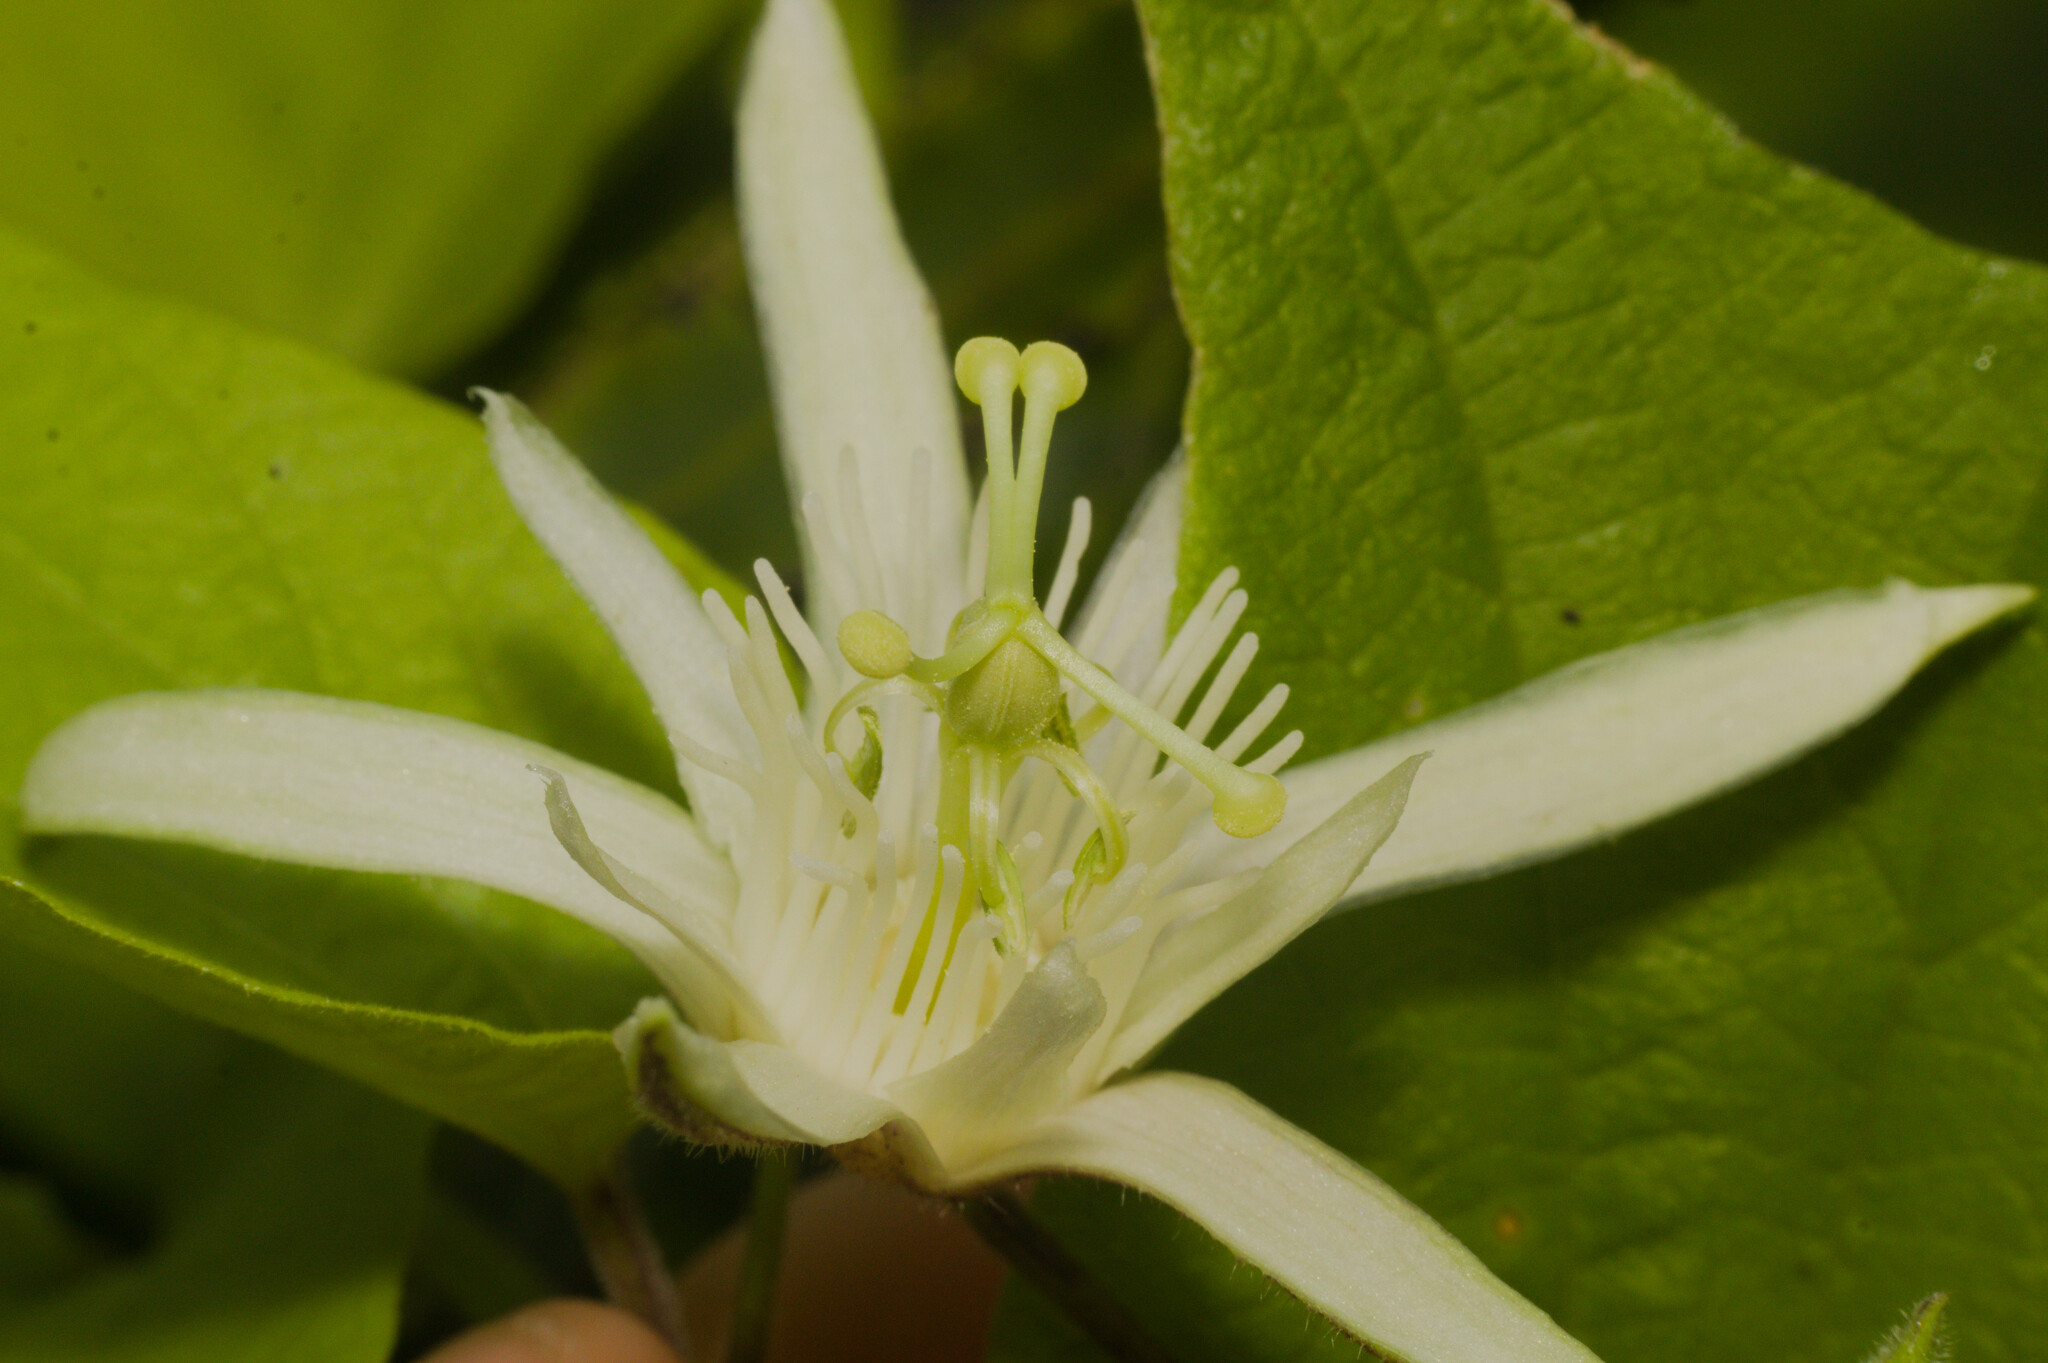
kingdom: Plantae
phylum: Tracheophyta
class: Magnoliopsida
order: Malpighiales
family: Passifloraceae
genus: Passiflora
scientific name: Passiflora capsularis
